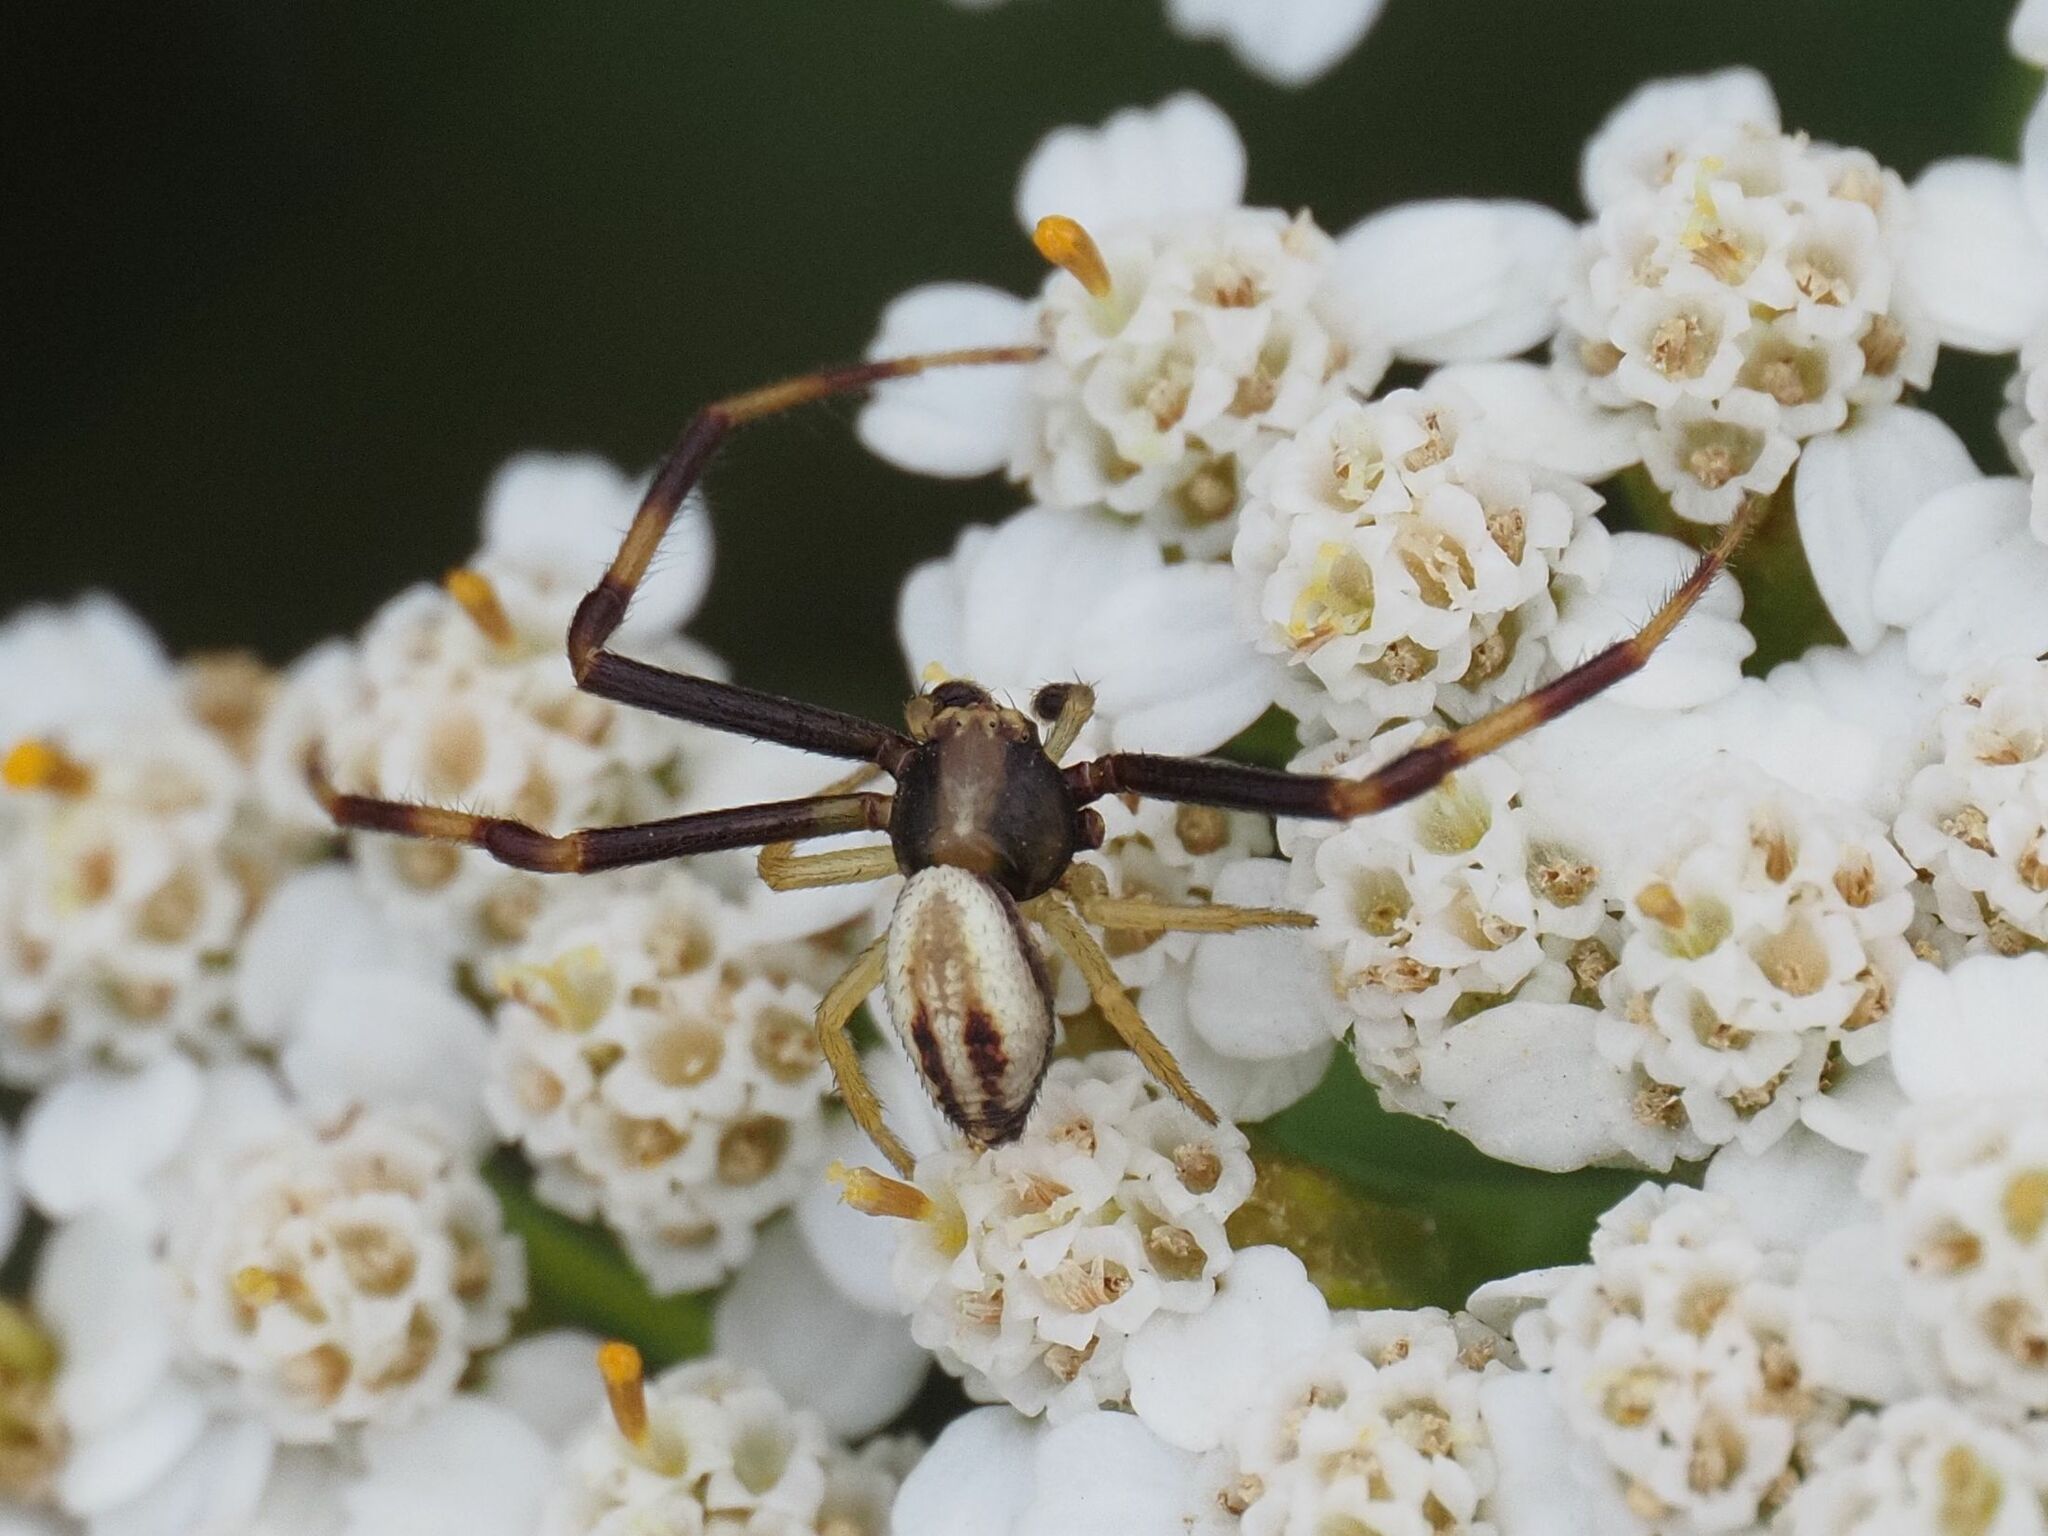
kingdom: Animalia
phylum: Arthropoda
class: Arachnida
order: Araneae
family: Thomisidae
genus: Misumena
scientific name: Misumena vatia
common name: Goldenrod crab spider
